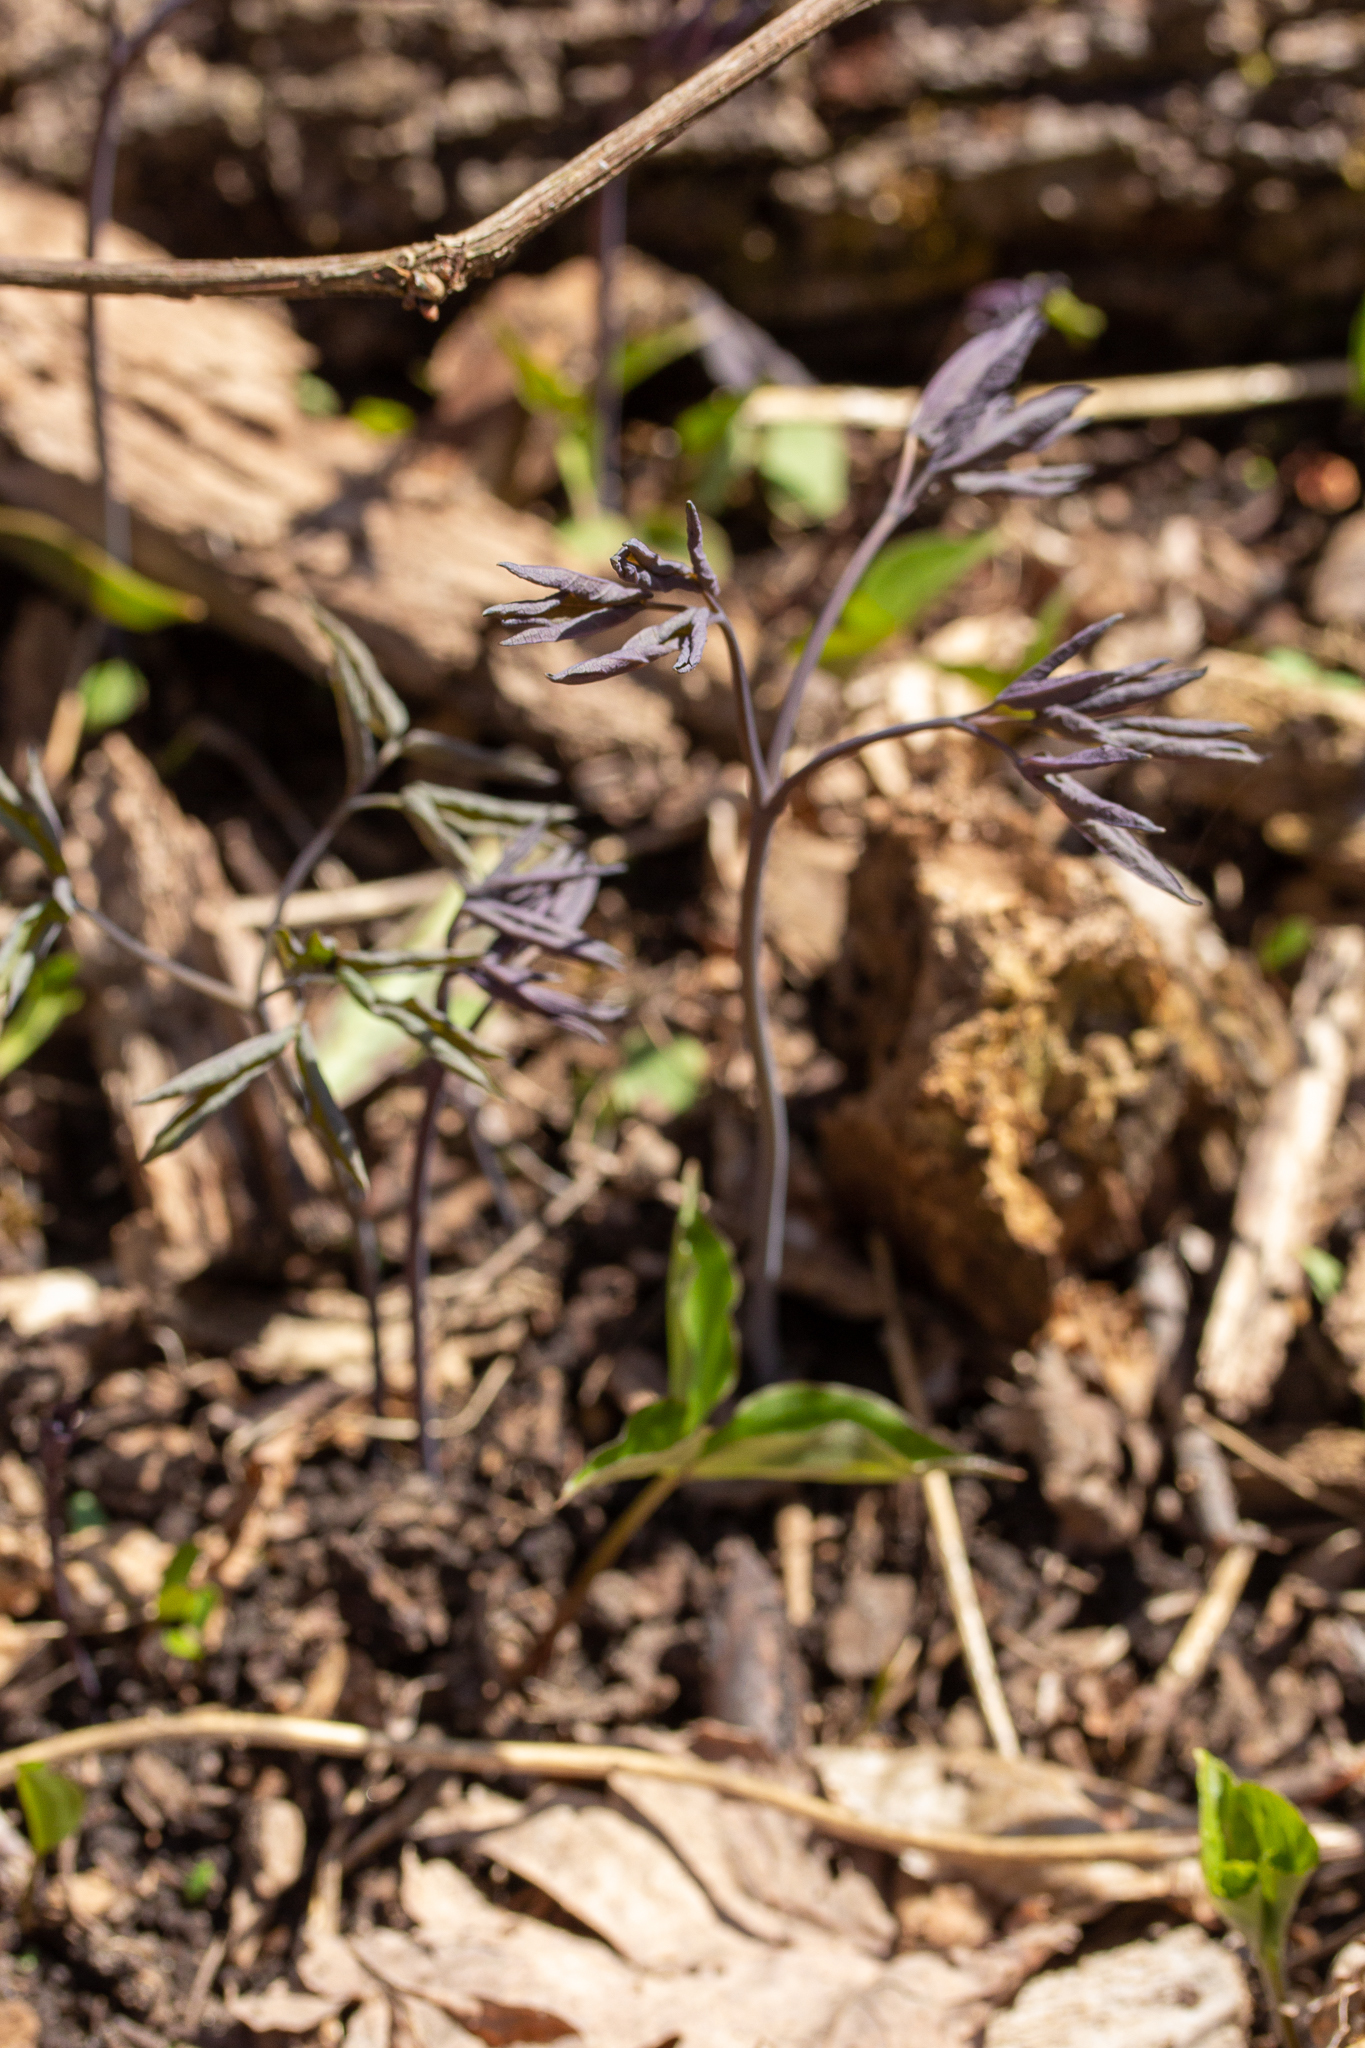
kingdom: Plantae
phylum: Tracheophyta
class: Magnoliopsida
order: Ranunculales
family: Berberidaceae
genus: Caulophyllum
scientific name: Caulophyllum giganteum
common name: Blue cohosh
